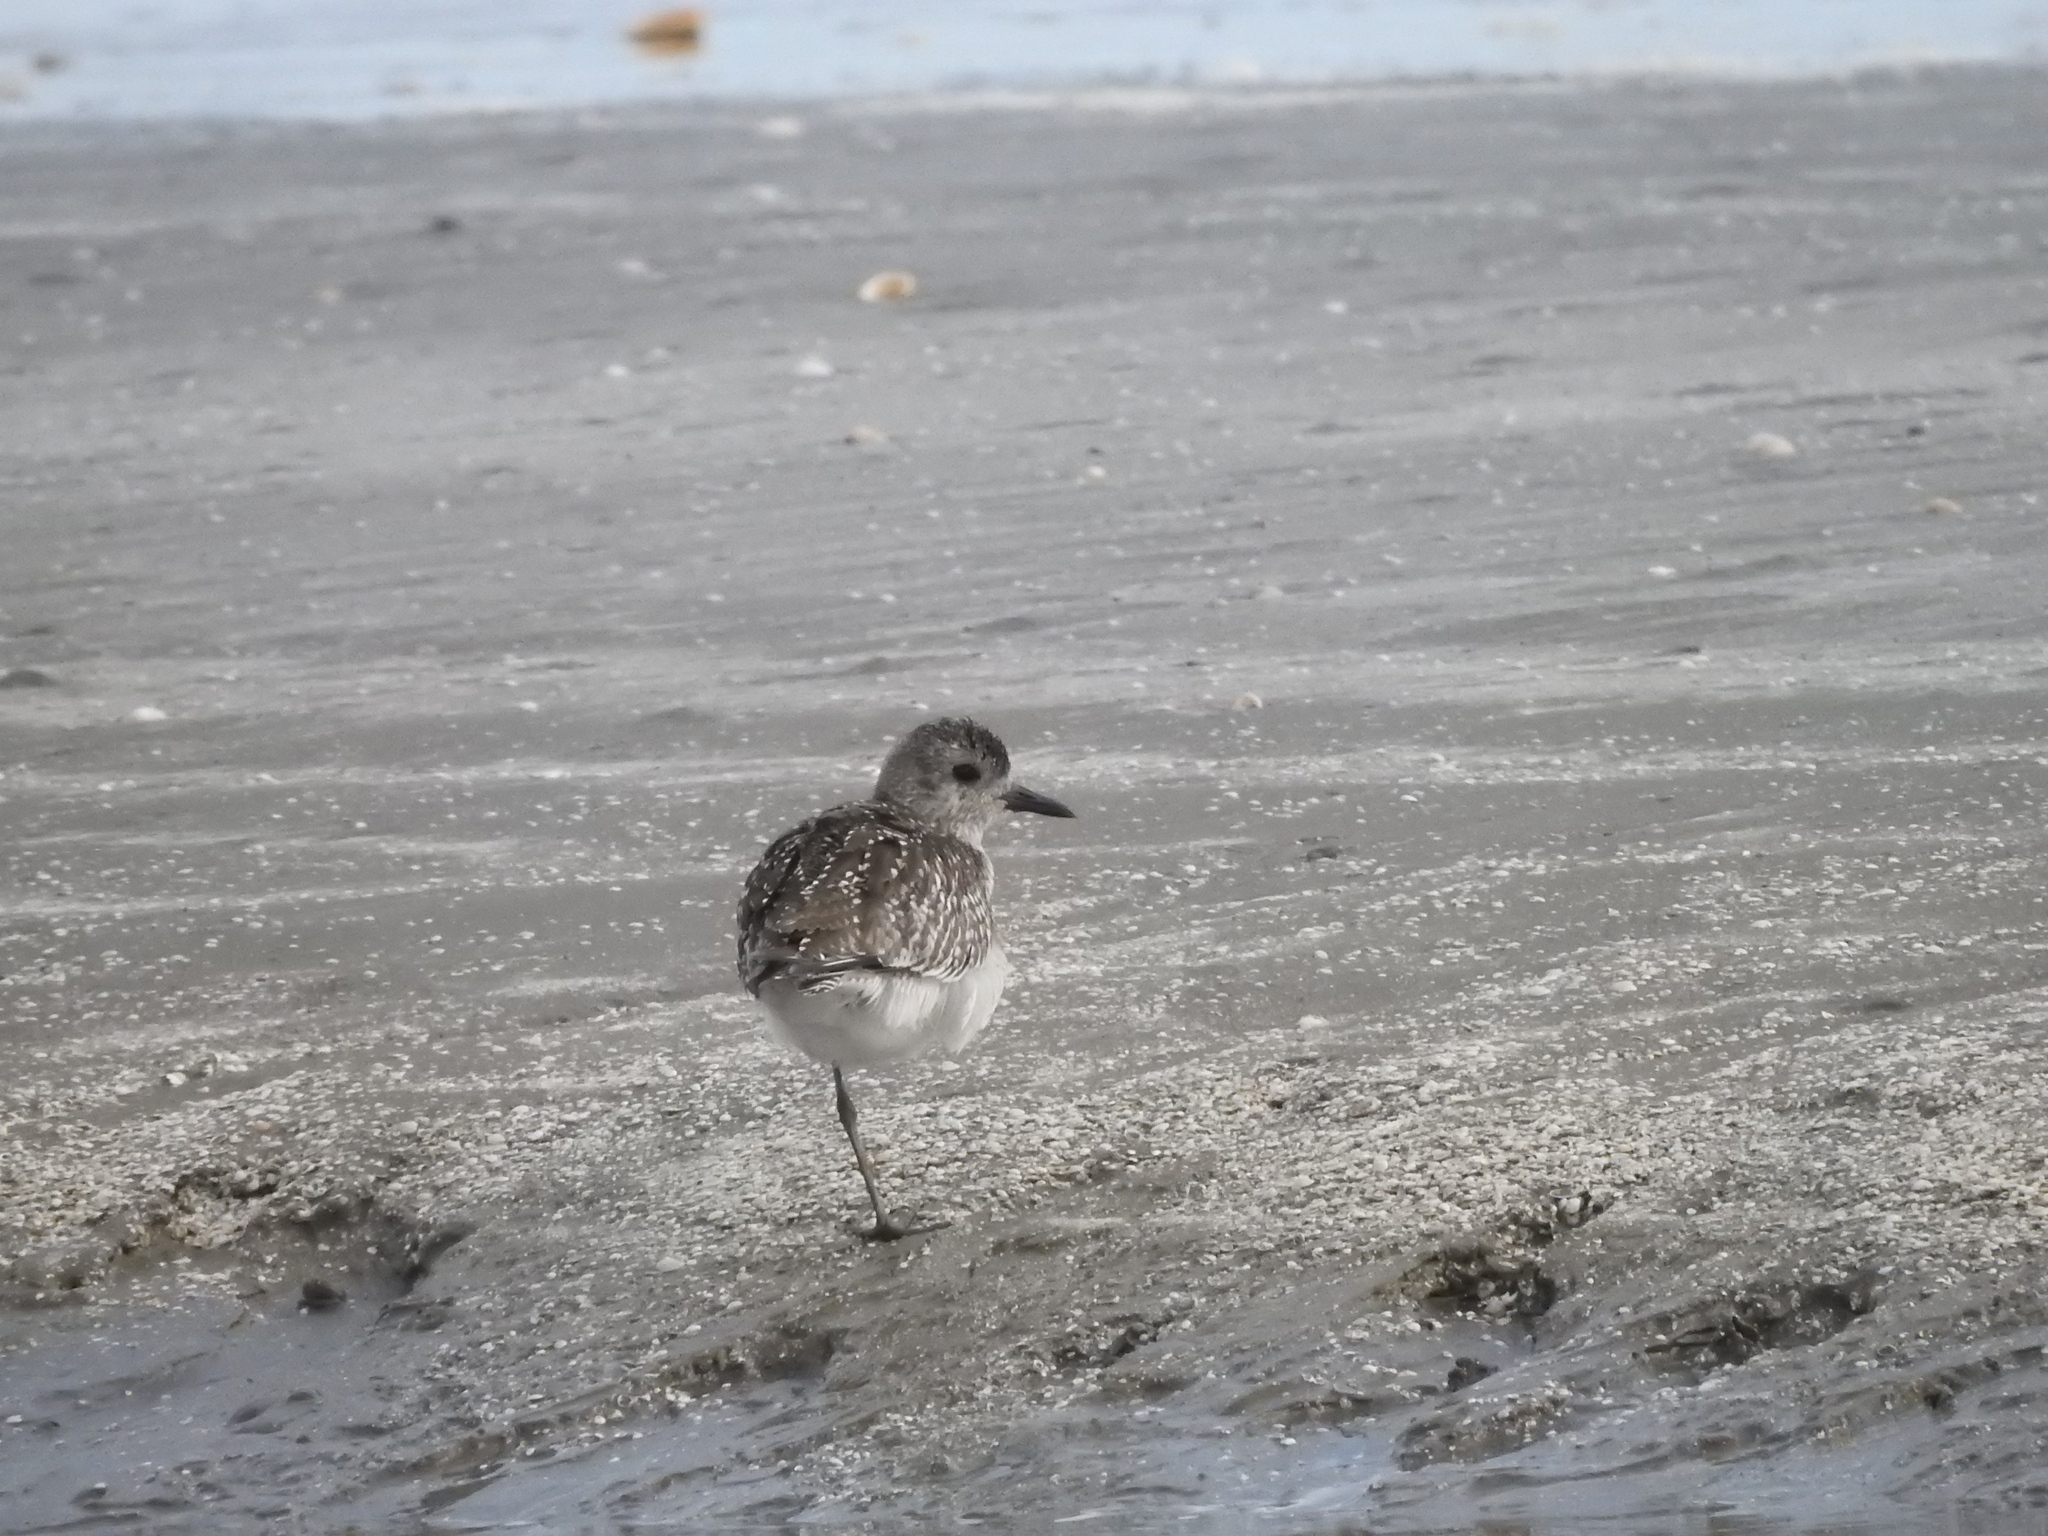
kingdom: Animalia
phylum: Chordata
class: Aves
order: Charadriiformes
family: Charadriidae
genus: Pluvialis
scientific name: Pluvialis squatarola
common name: Grey plover
